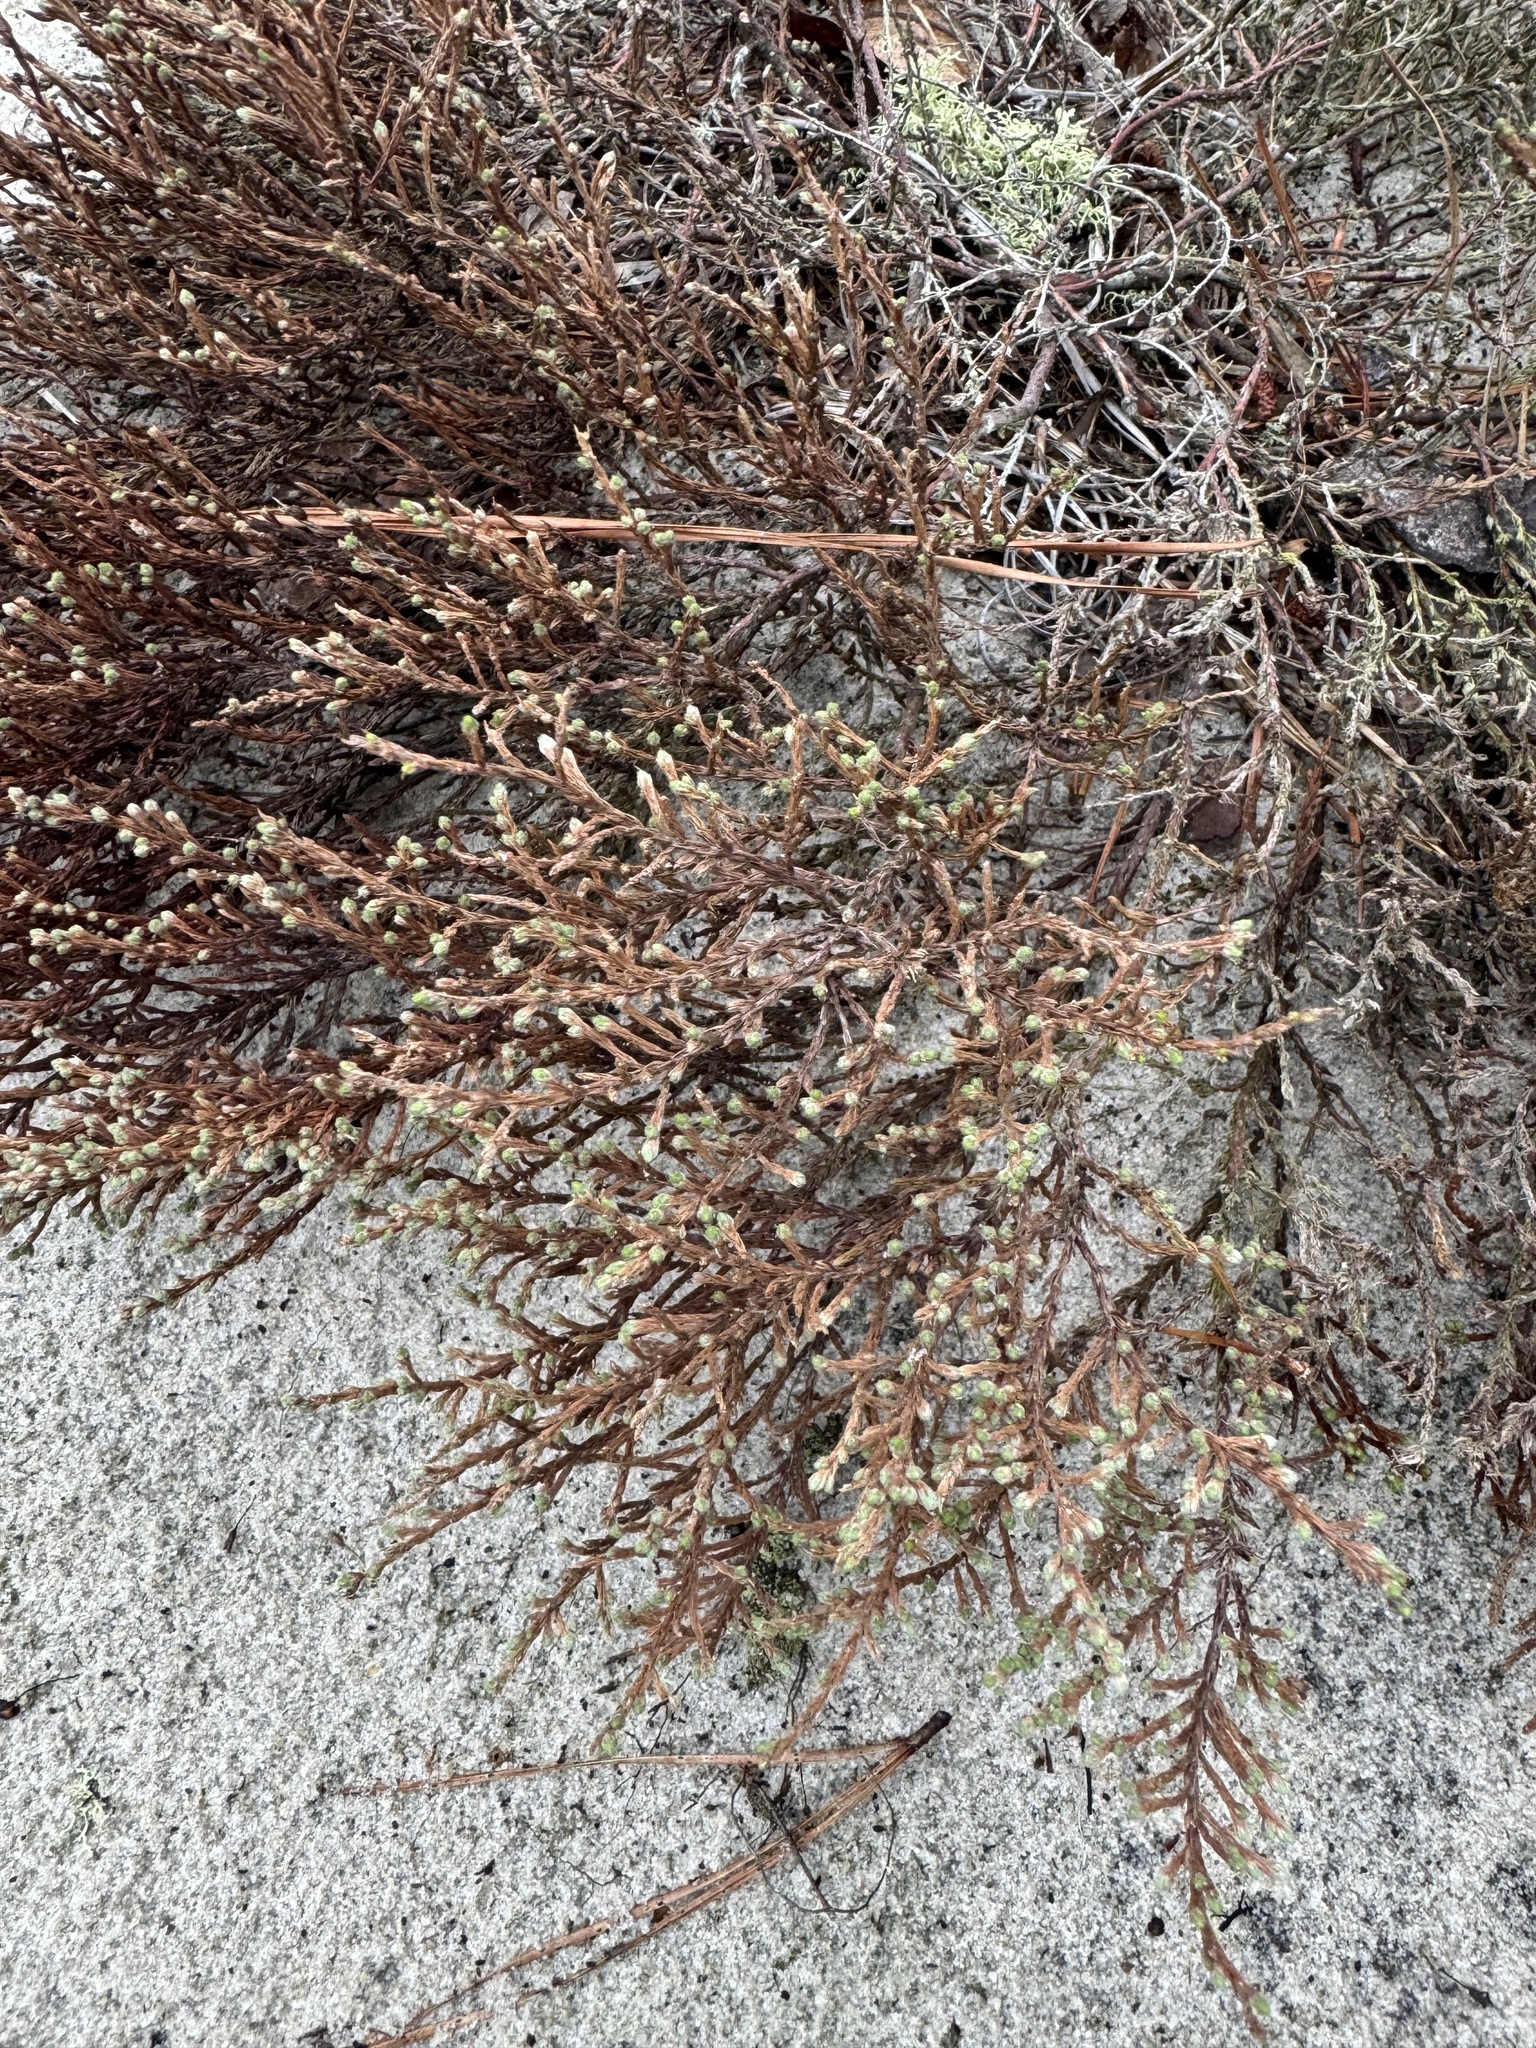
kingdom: Plantae
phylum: Tracheophyta
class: Magnoliopsida
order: Malvales
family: Cistaceae
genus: Hudsonia
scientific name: Hudsonia tomentosa
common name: Beach-heath
